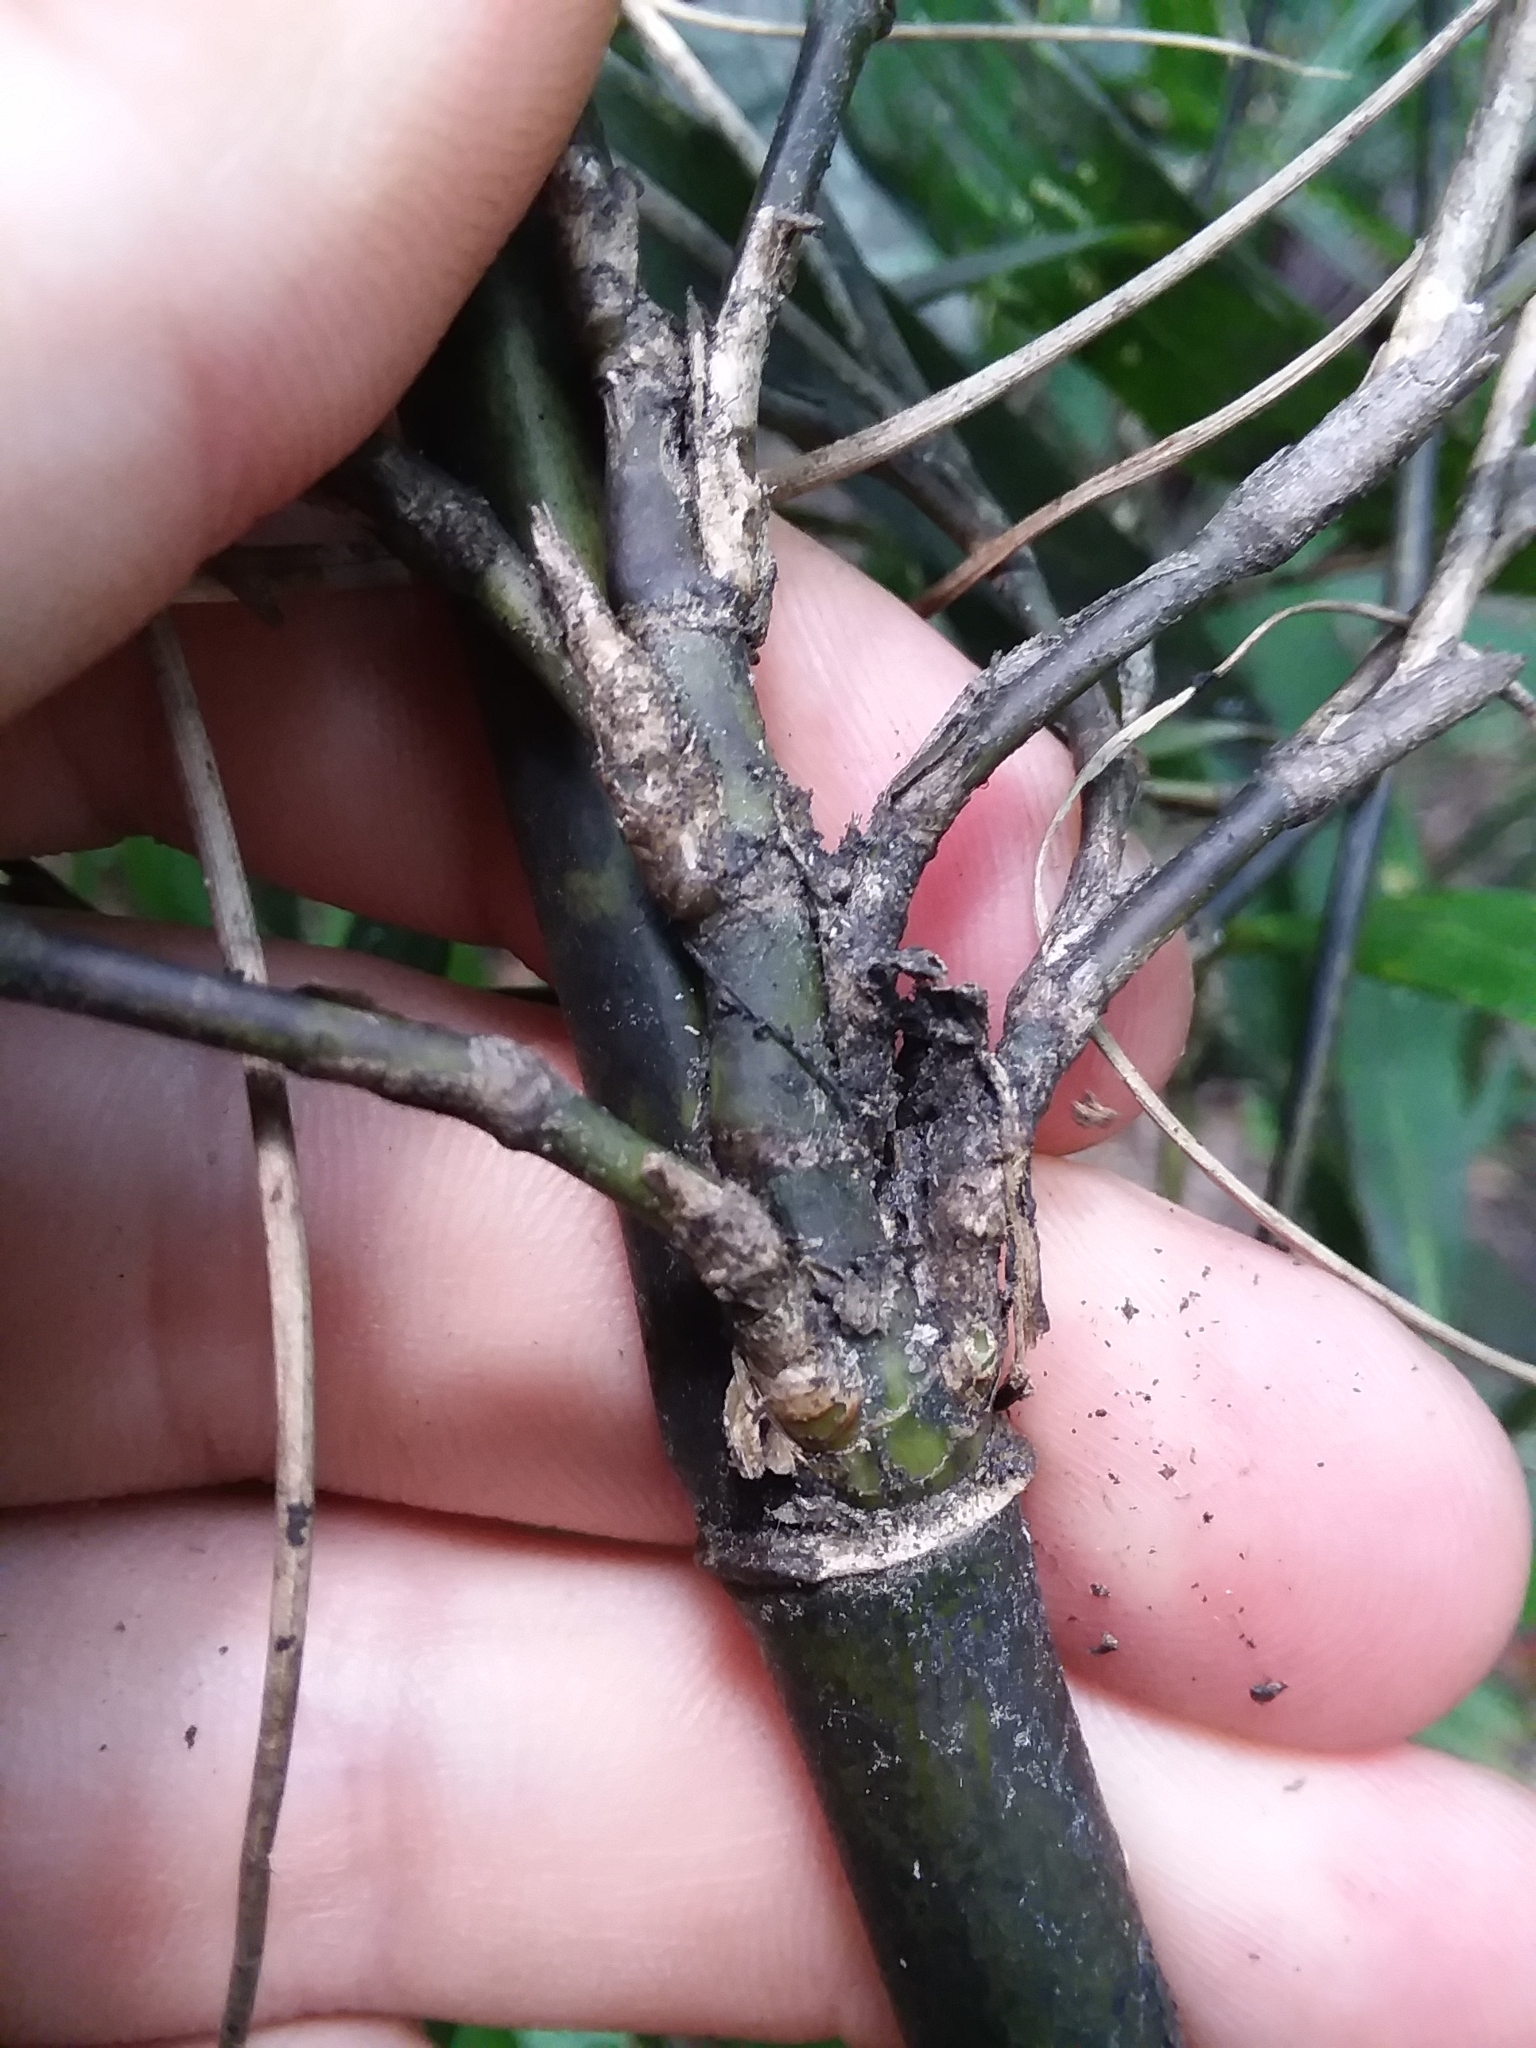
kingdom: Plantae
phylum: Tracheophyta
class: Liliopsida
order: Poales
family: Poaceae
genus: Arundinaria
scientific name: Arundinaria gigantea
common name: Giant cane
